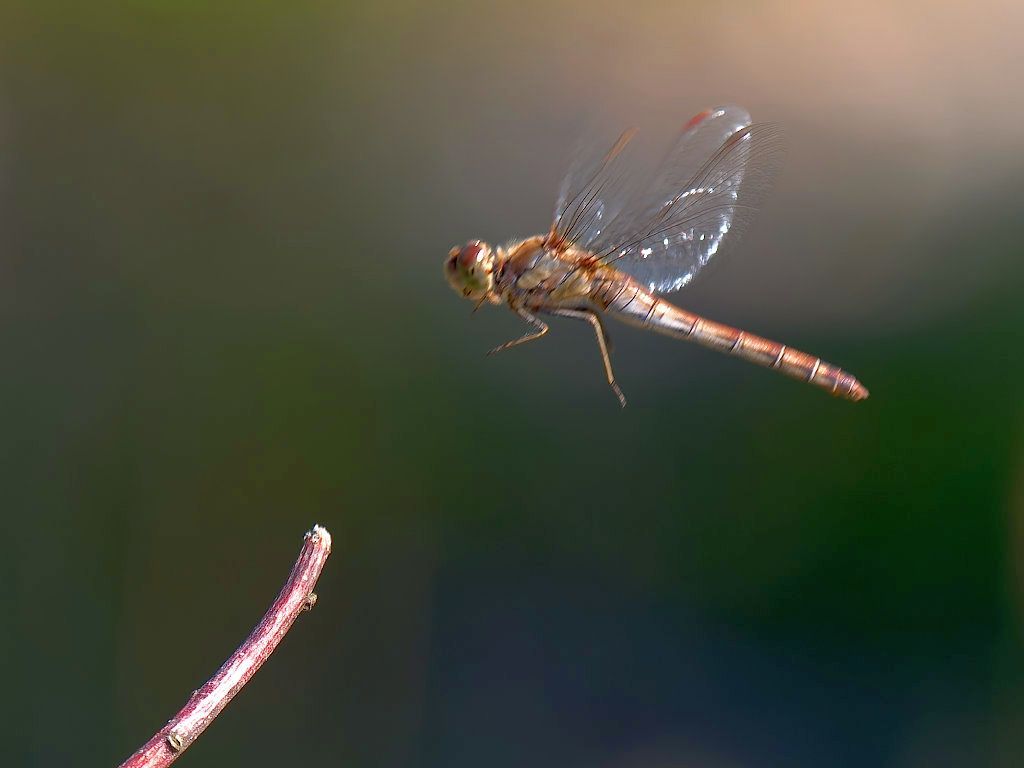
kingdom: Animalia
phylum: Arthropoda
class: Insecta
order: Odonata
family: Libellulidae
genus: Sympetrum
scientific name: Sympetrum striolatum
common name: Common darter
